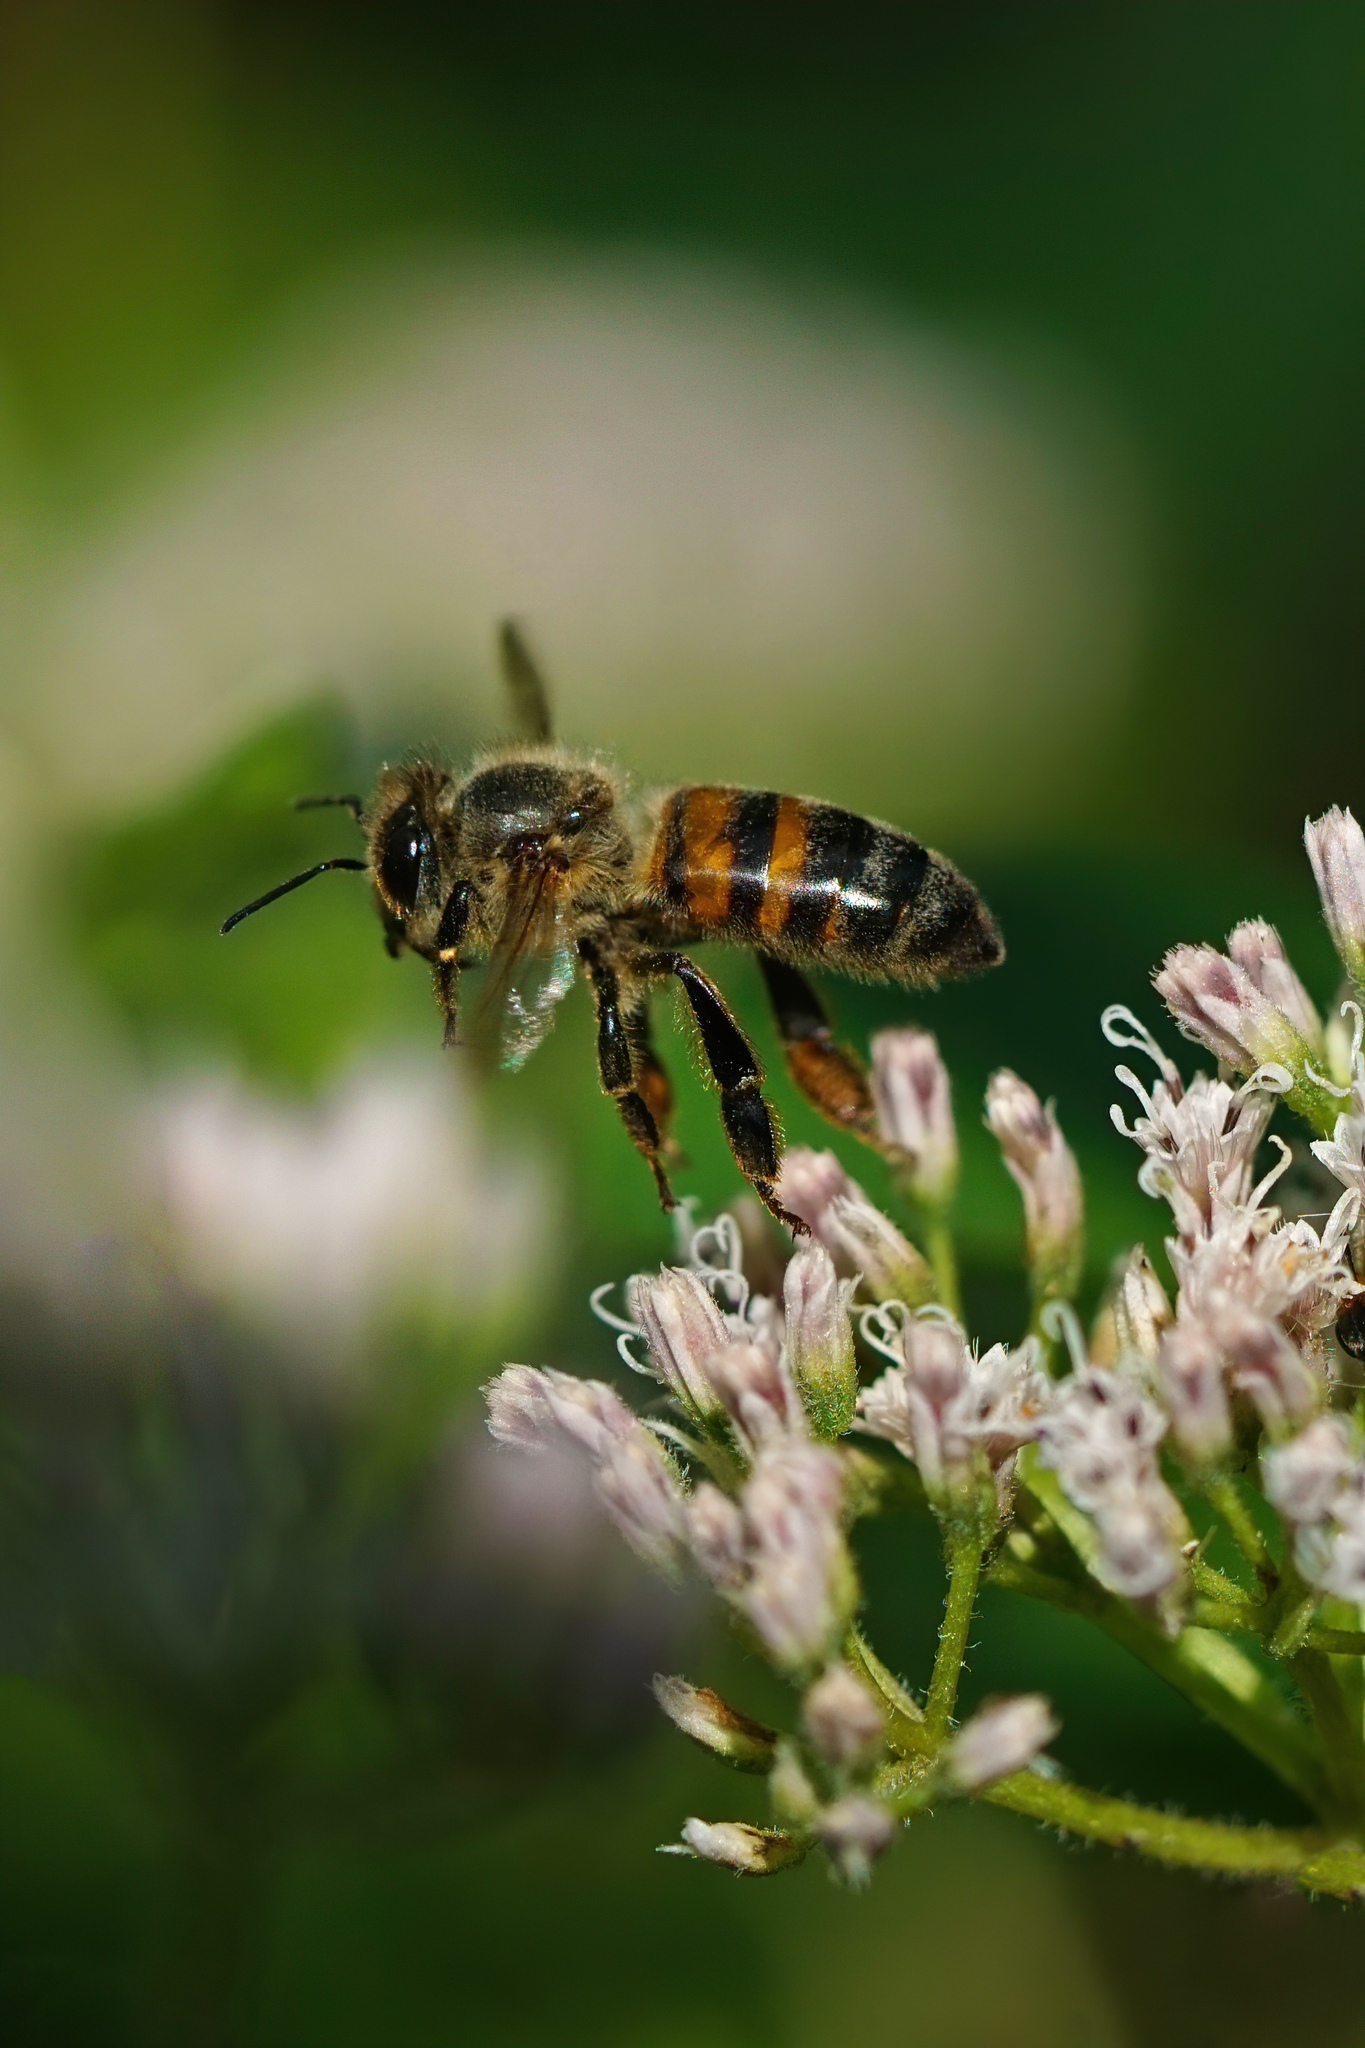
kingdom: Animalia
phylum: Arthropoda
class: Insecta
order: Hymenoptera
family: Apidae
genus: Apis
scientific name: Apis mellifera
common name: Honey bee
